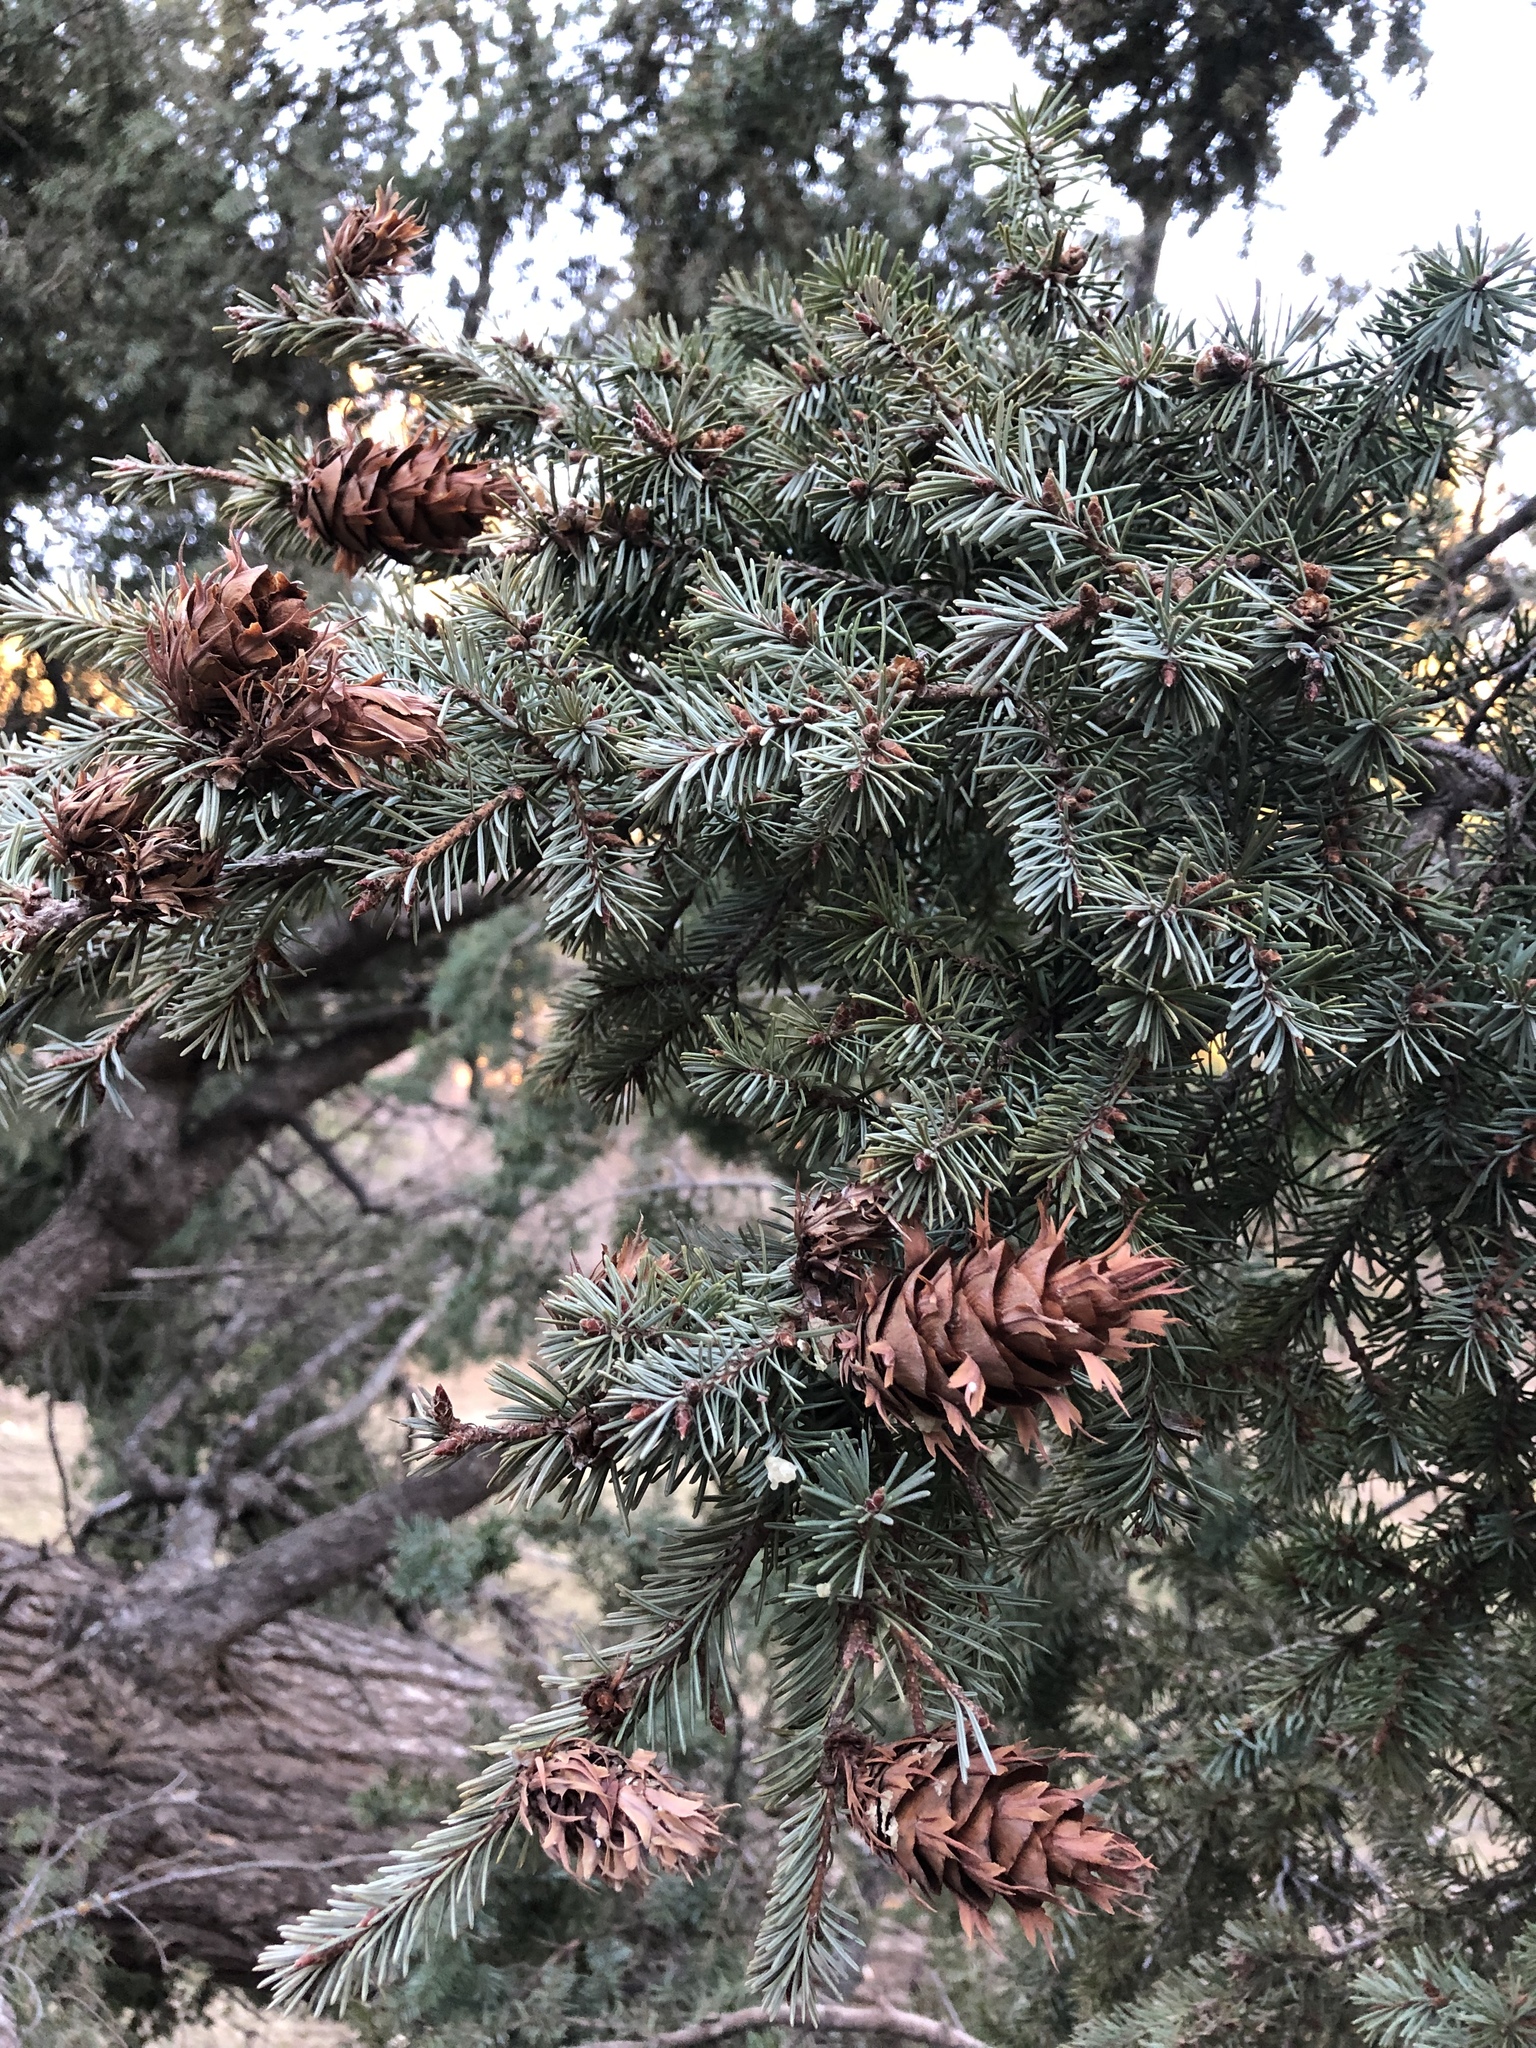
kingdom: Plantae
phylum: Tracheophyta
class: Pinopsida
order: Pinales
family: Pinaceae
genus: Pseudotsuga
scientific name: Pseudotsuga menziesii
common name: Douglas fir
